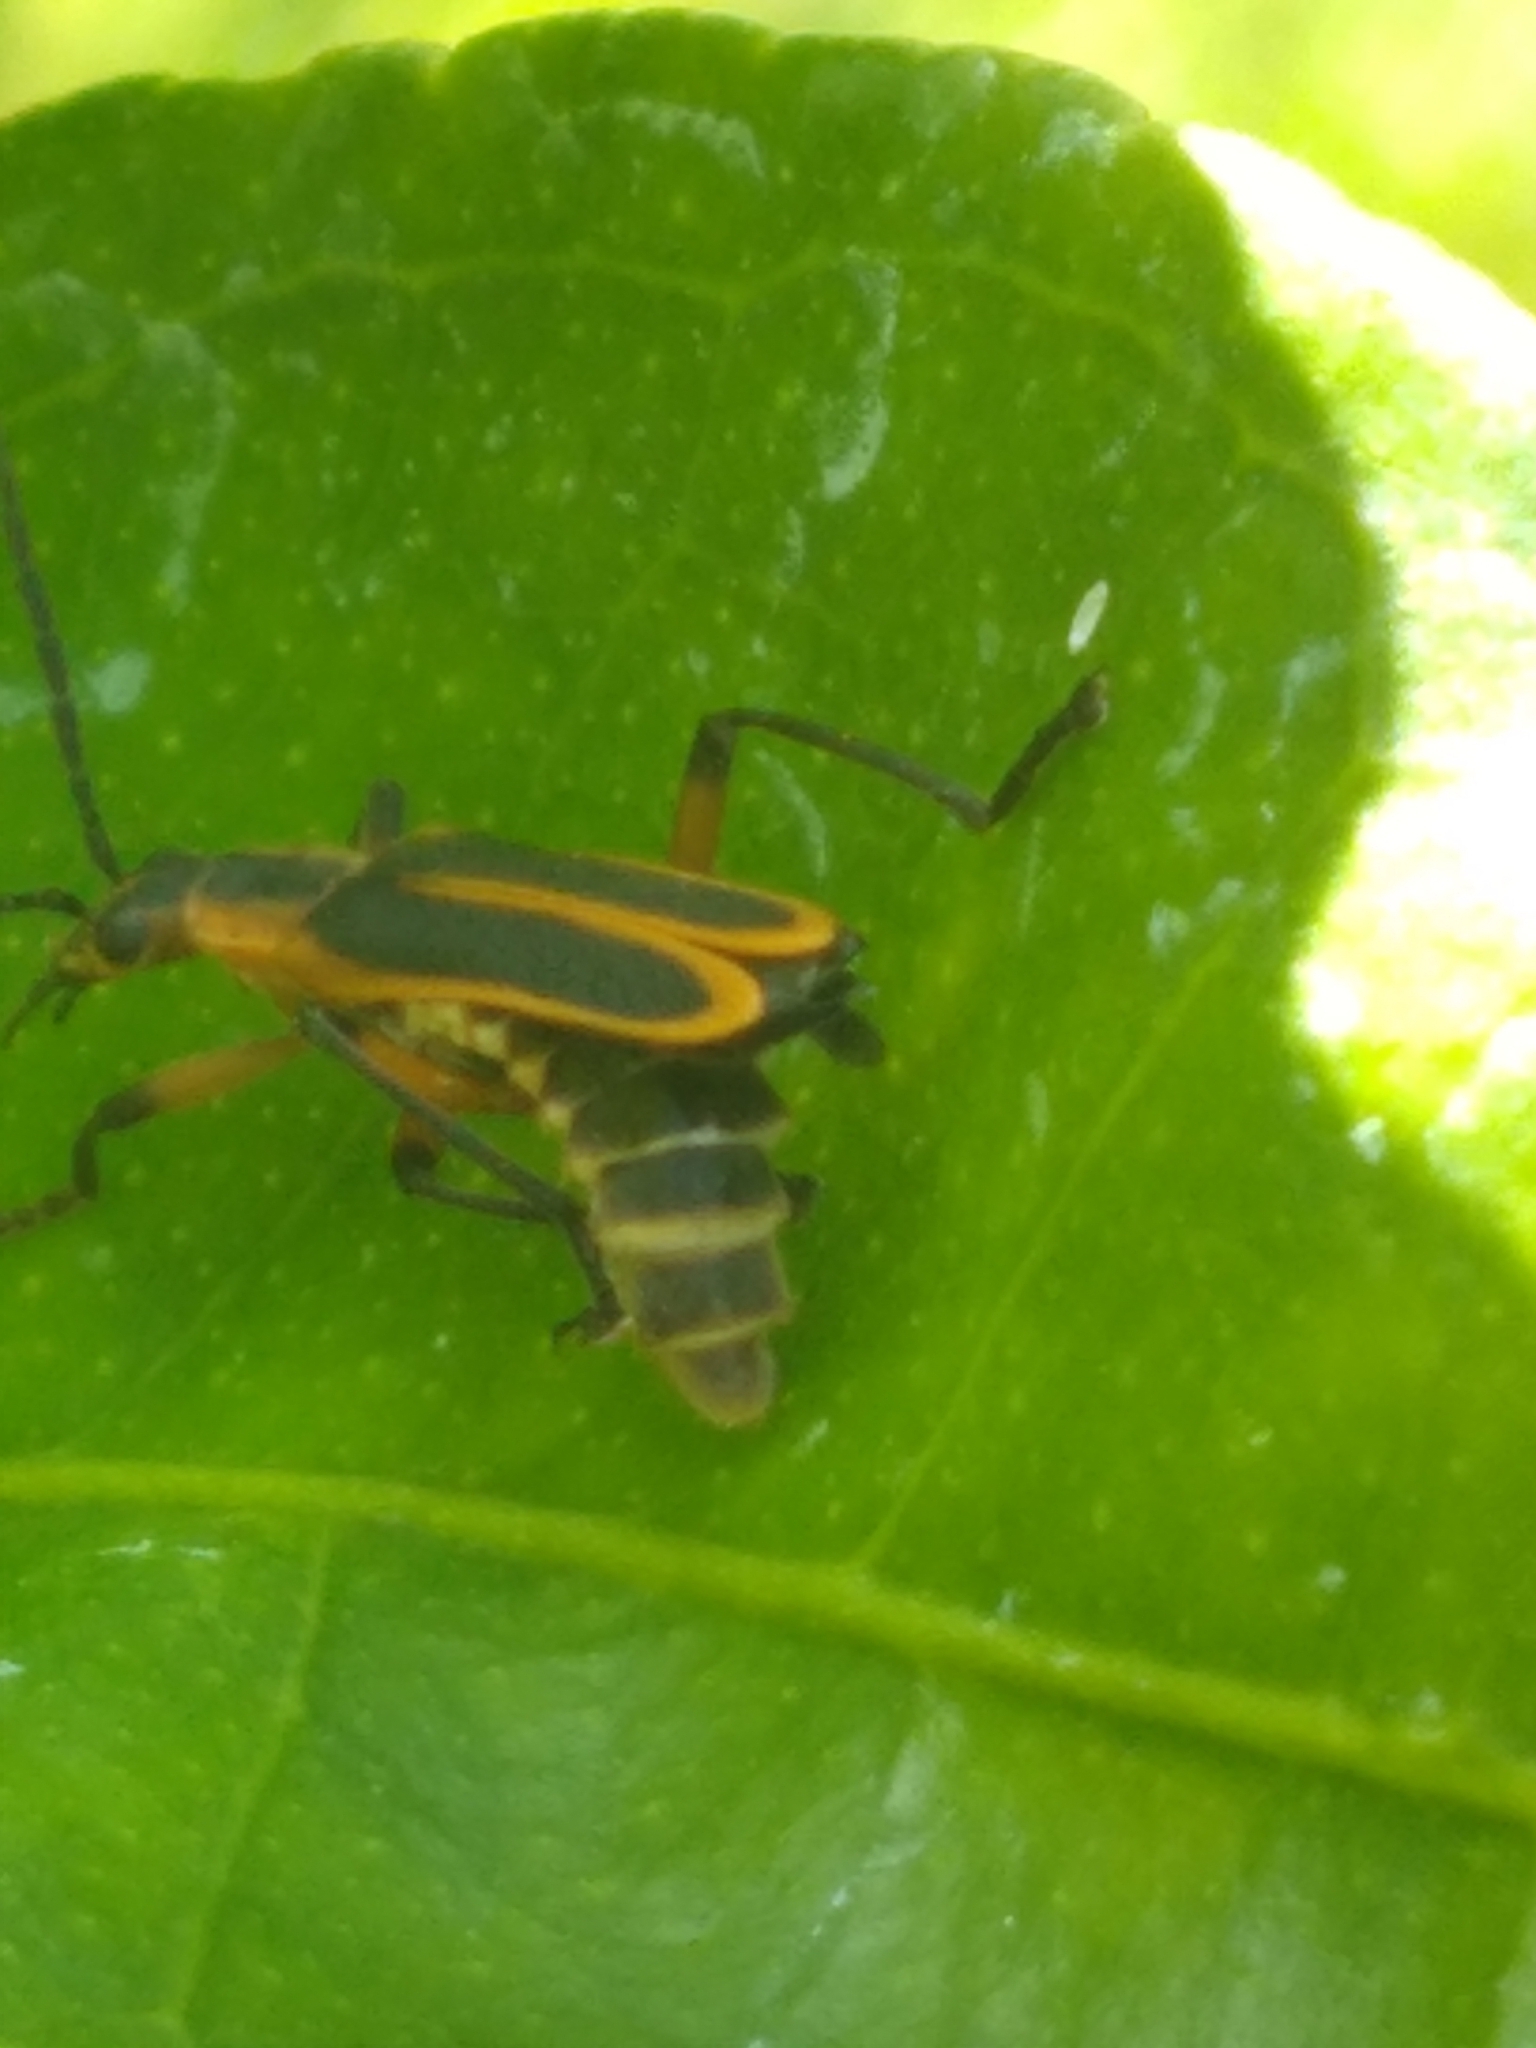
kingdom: Animalia
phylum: Arthropoda
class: Insecta
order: Coleoptera
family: Cantharidae
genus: Chauliognathus
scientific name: Chauliognathus marginatus
